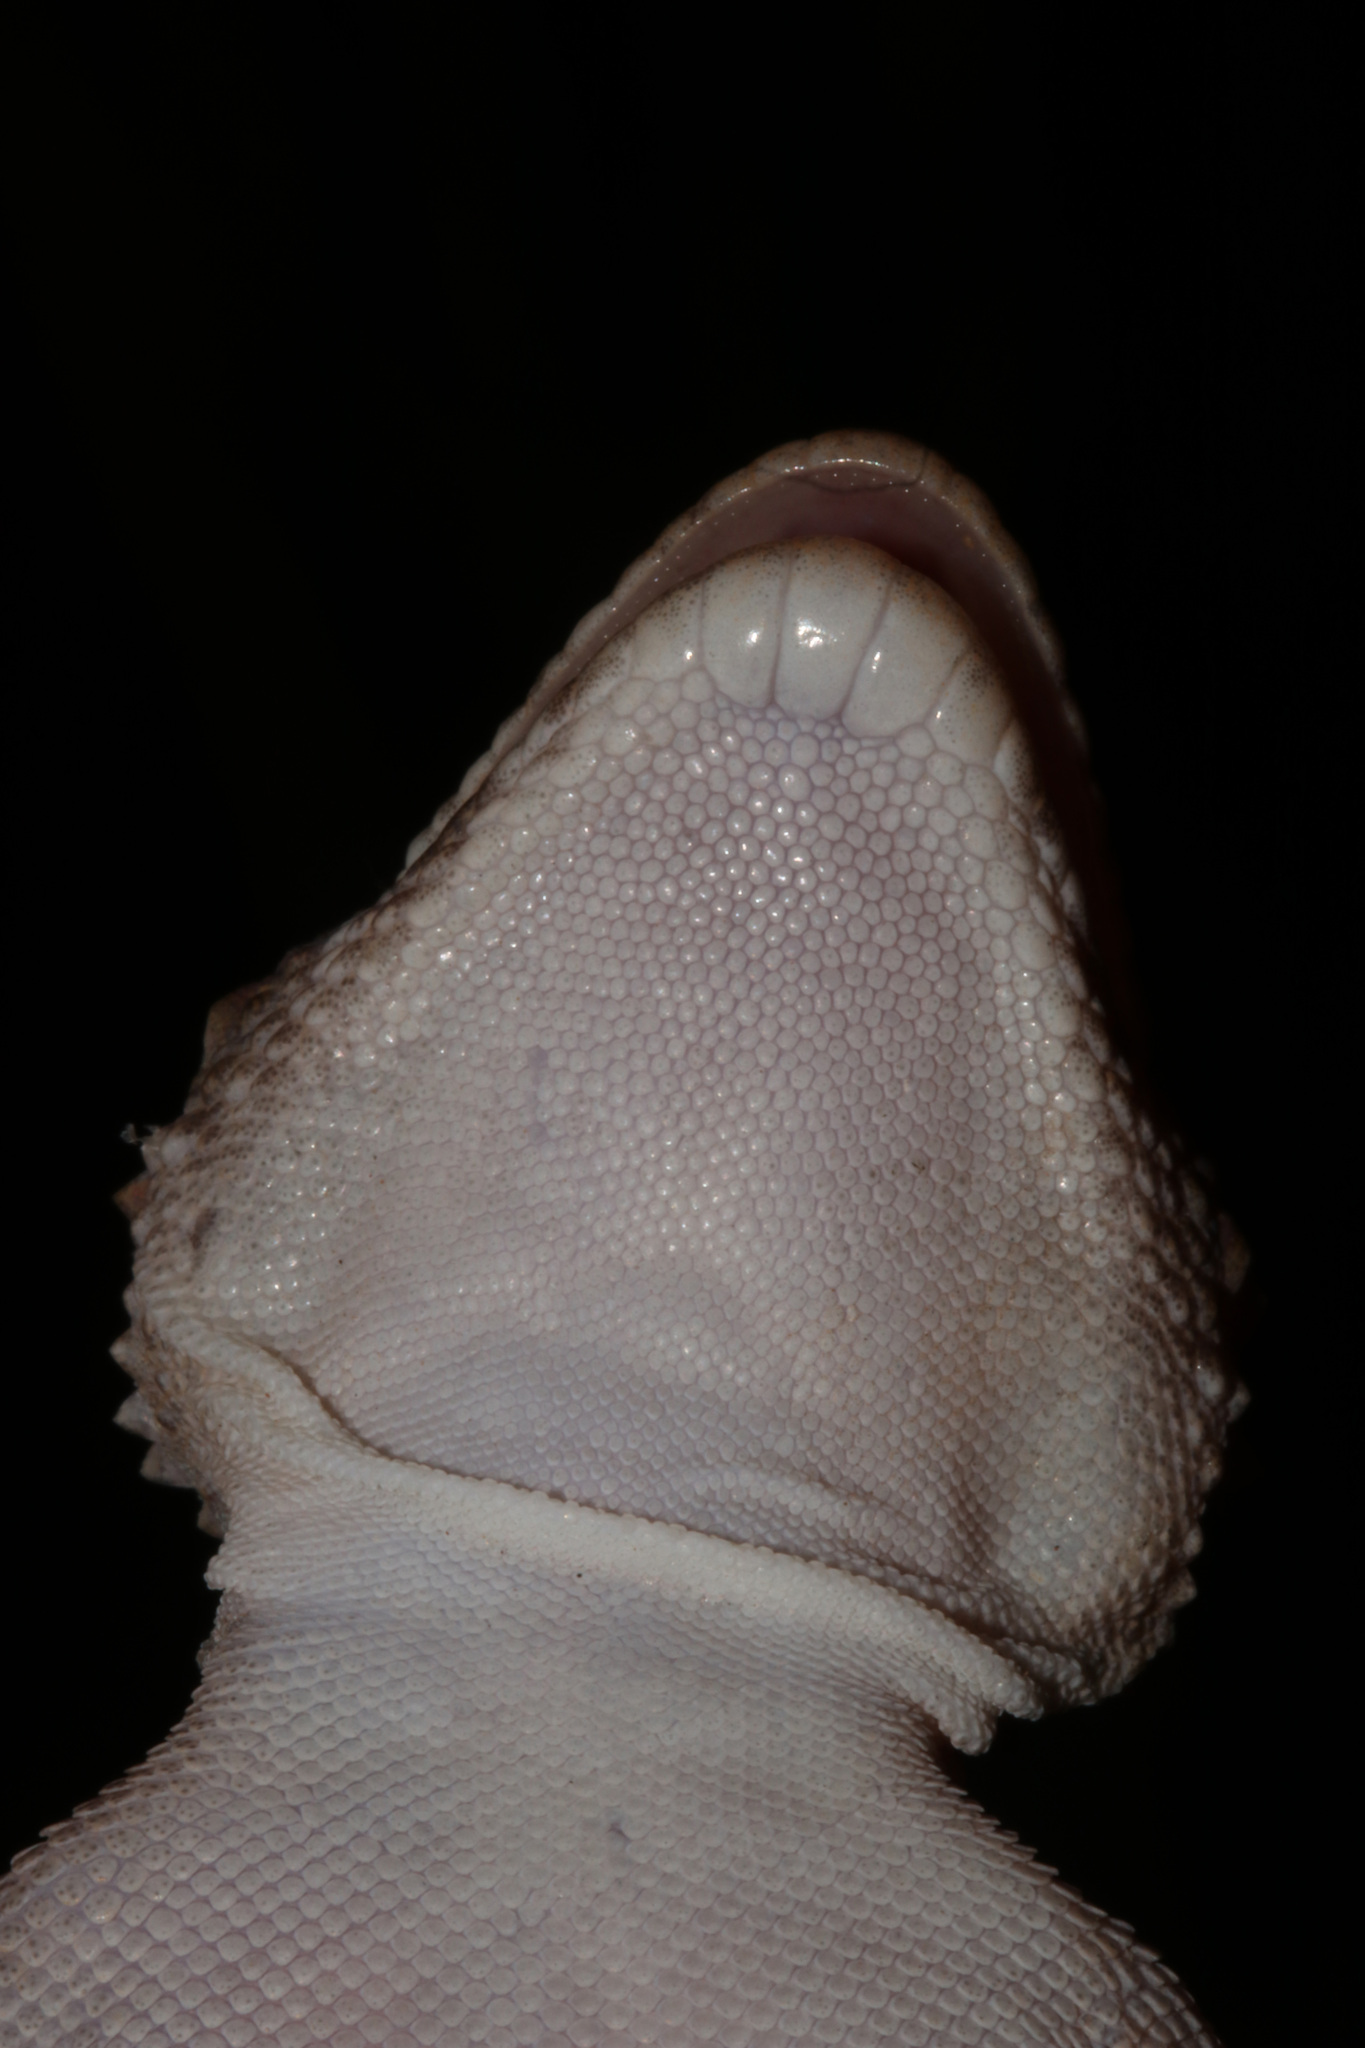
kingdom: Animalia
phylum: Chordata
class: Squamata
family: Gekkonidae
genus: Chondrodactylus
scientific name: Chondrodactylus laevigatus
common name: Fischer's thick-toed gecko
